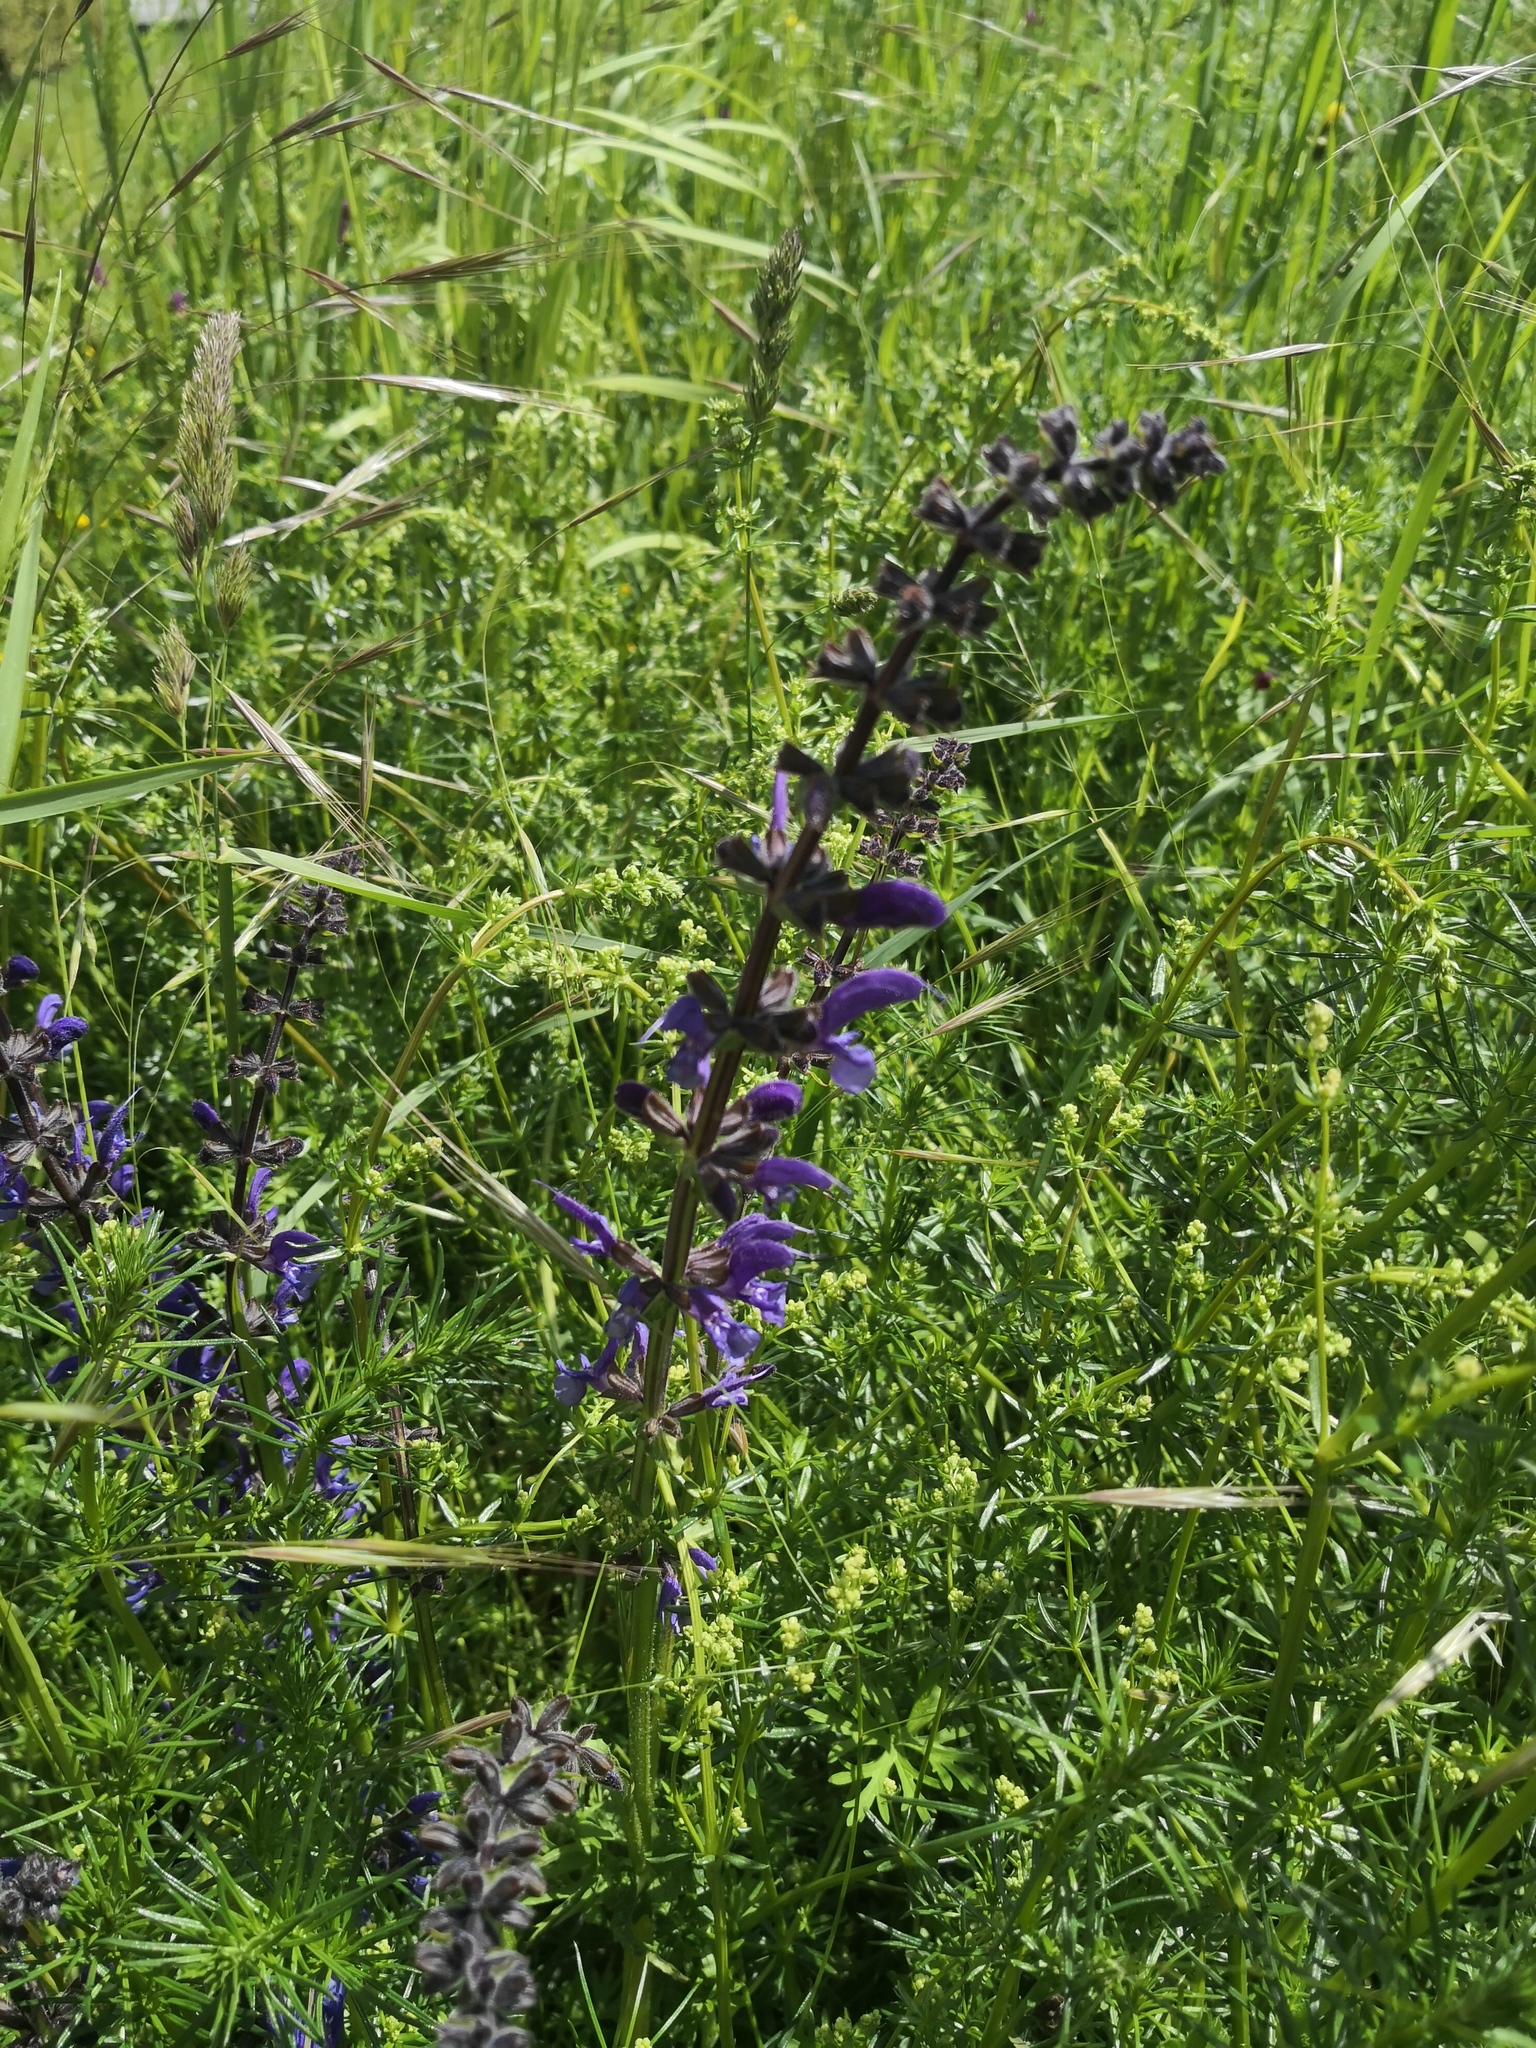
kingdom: Plantae
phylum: Tracheophyta
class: Magnoliopsida
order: Lamiales
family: Lamiaceae
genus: Salvia
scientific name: Salvia pratensis
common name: Meadow sage
